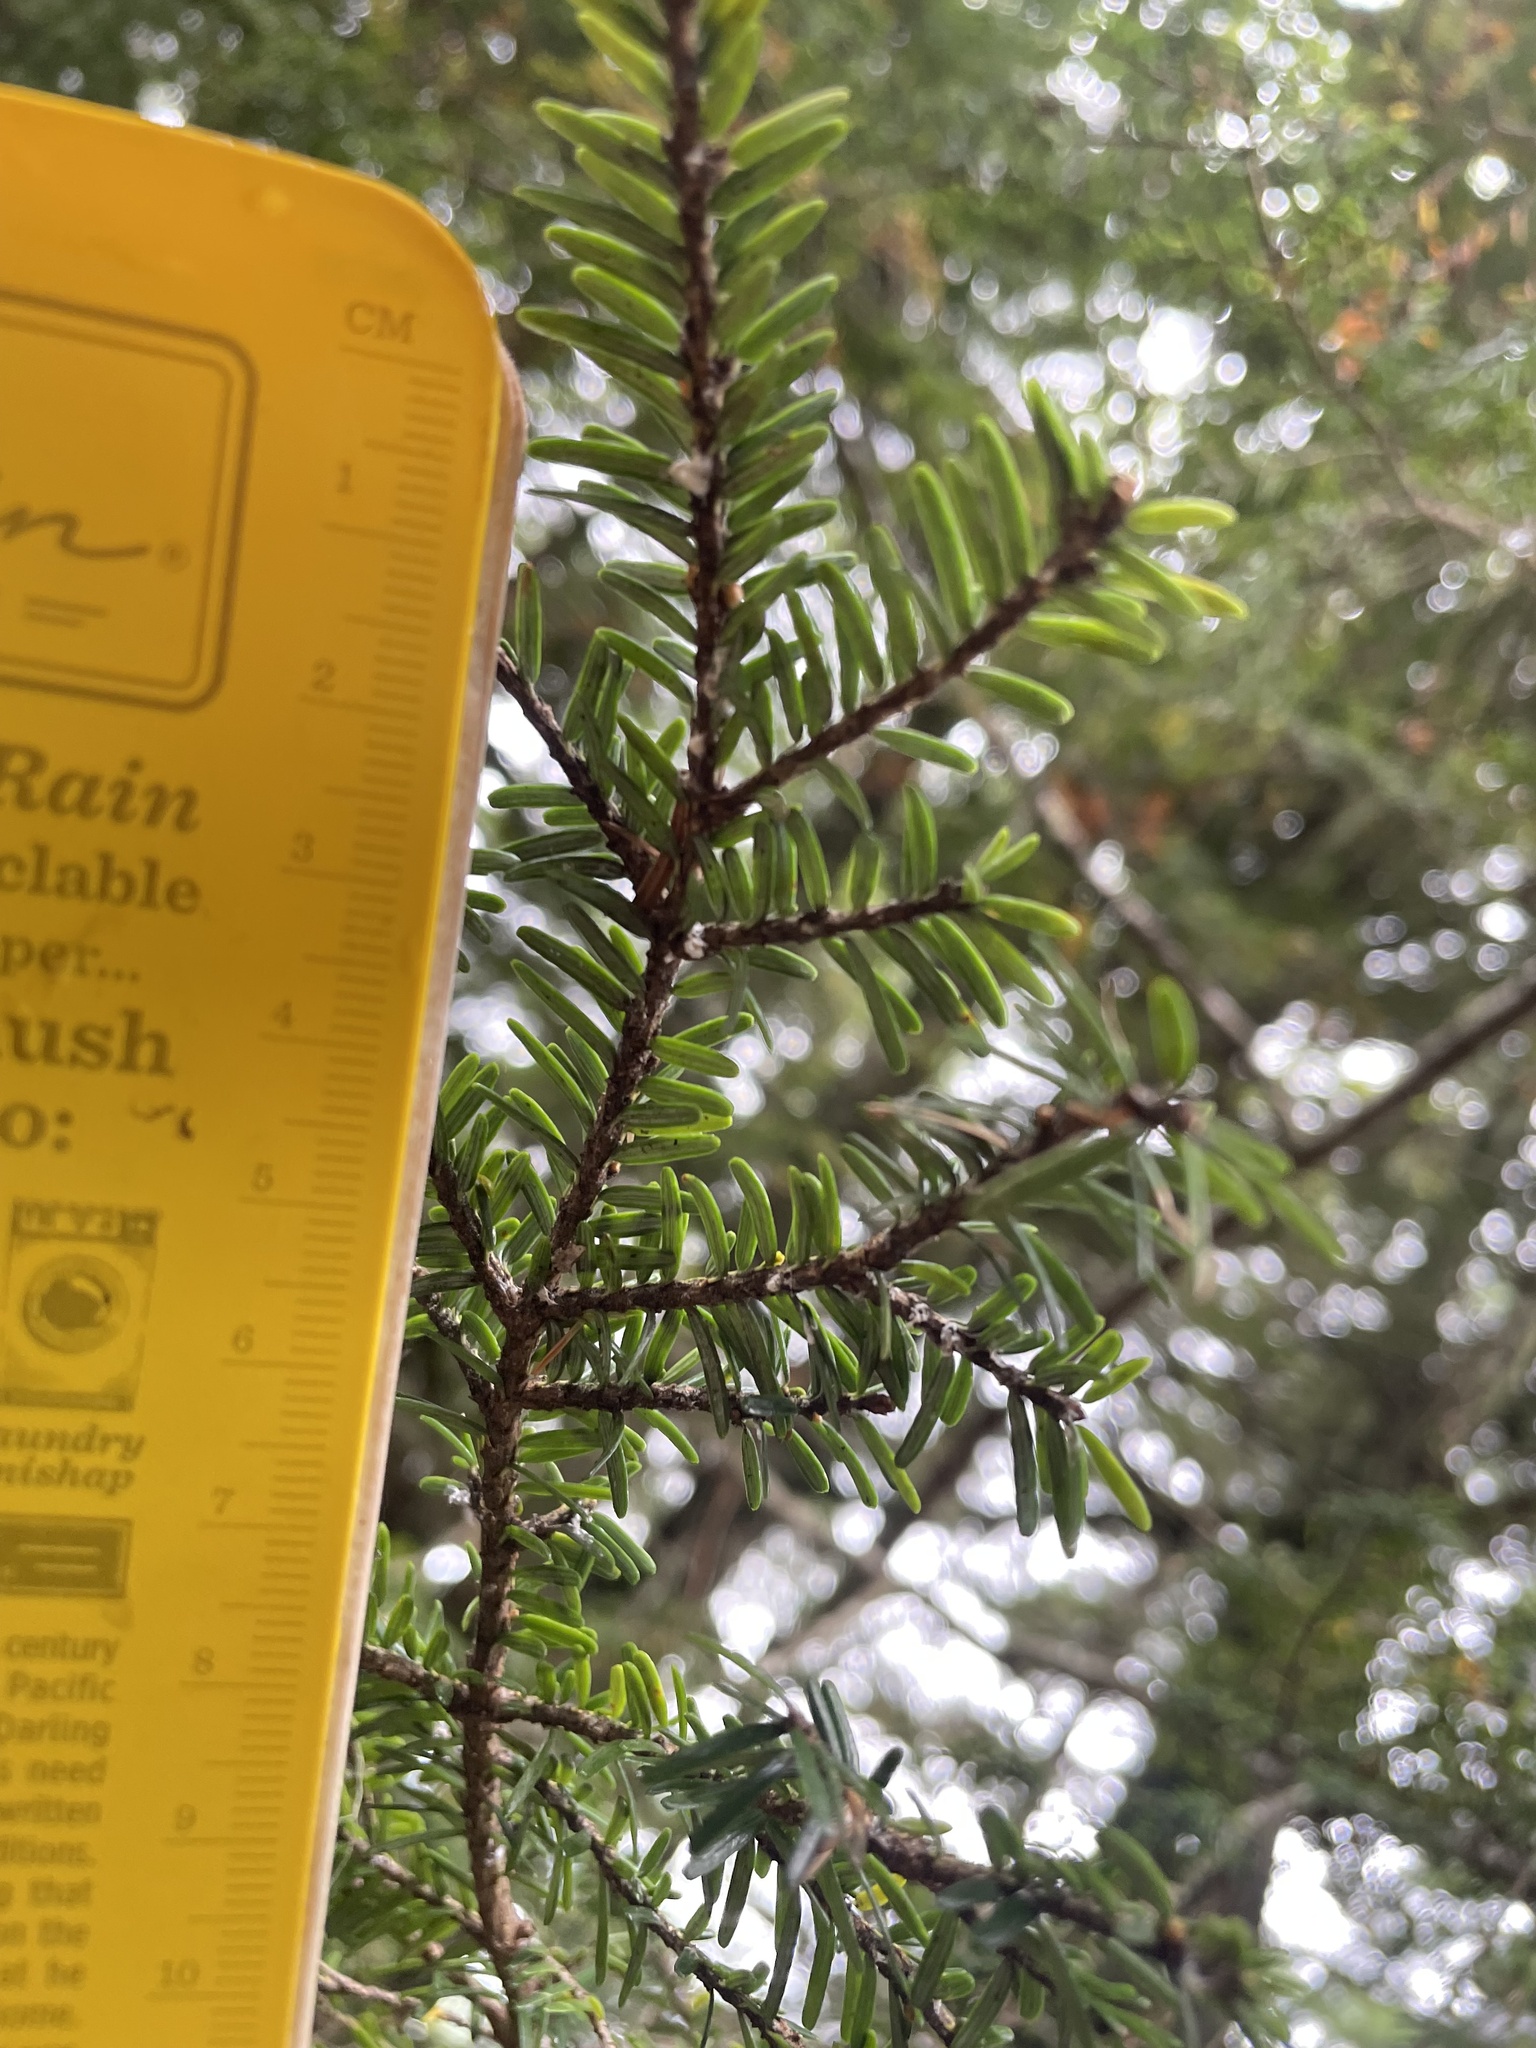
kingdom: Animalia
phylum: Arthropoda
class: Insecta
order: Hemiptera
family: Adelgidae
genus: Adelges
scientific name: Adelges tsugae
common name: Hemlock woolly adelgid
